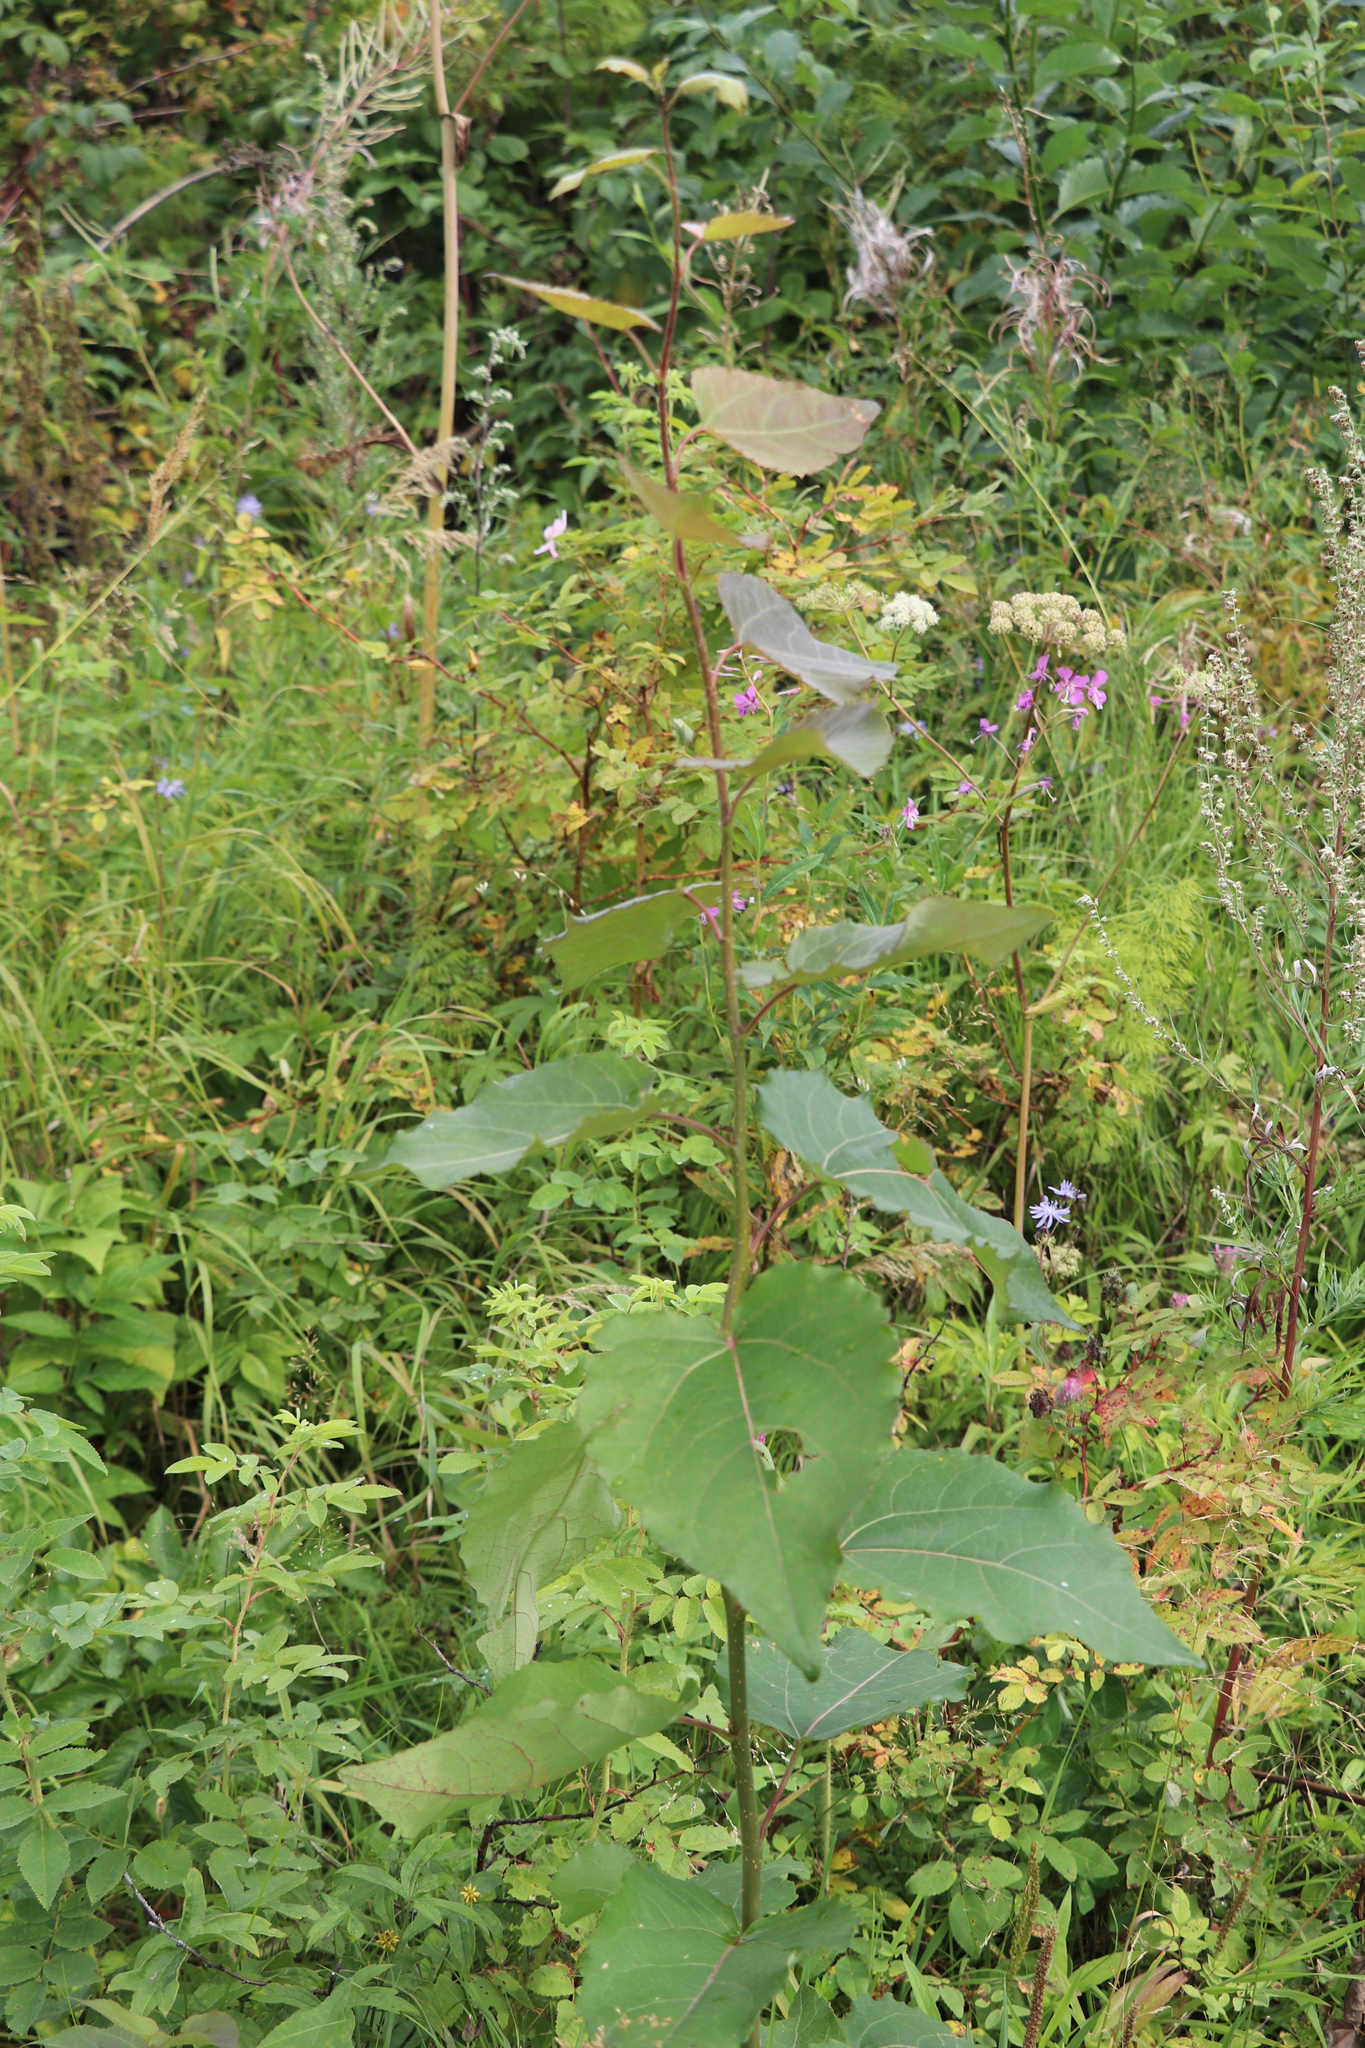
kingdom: Plantae
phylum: Tracheophyta
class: Magnoliopsida
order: Malpighiales
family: Salicaceae
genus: Populus
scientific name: Populus tremula
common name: European aspen
